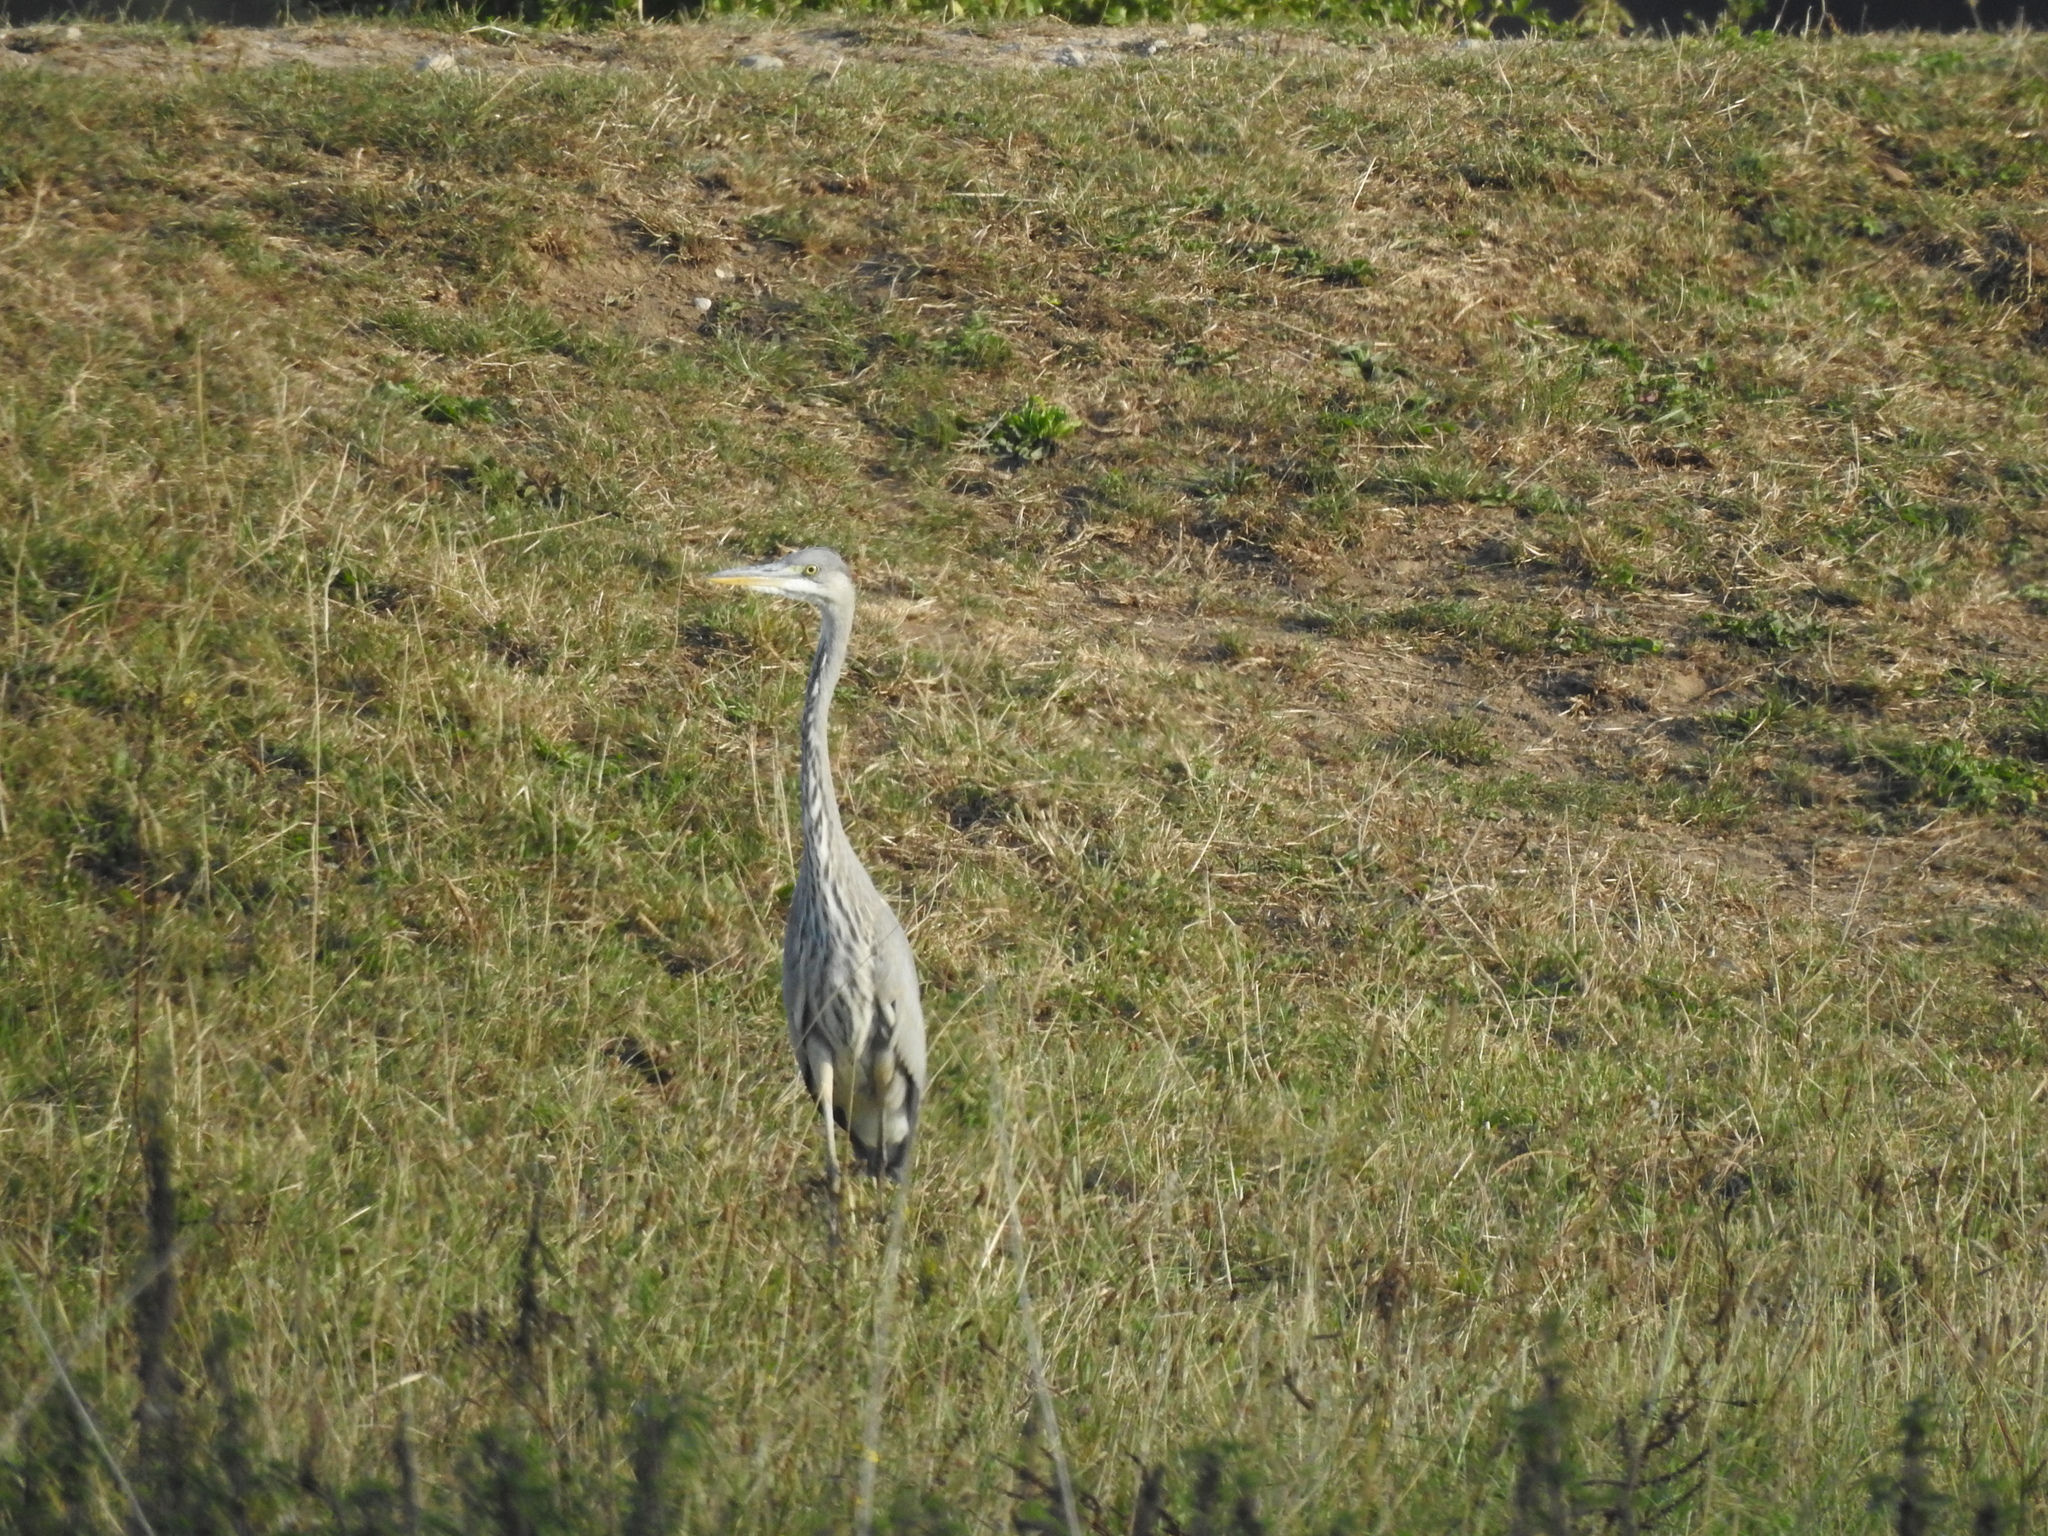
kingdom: Animalia
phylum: Chordata
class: Aves
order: Pelecaniformes
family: Ardeidae
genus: Ardea
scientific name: Ardea cinerea
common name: Grey heron
